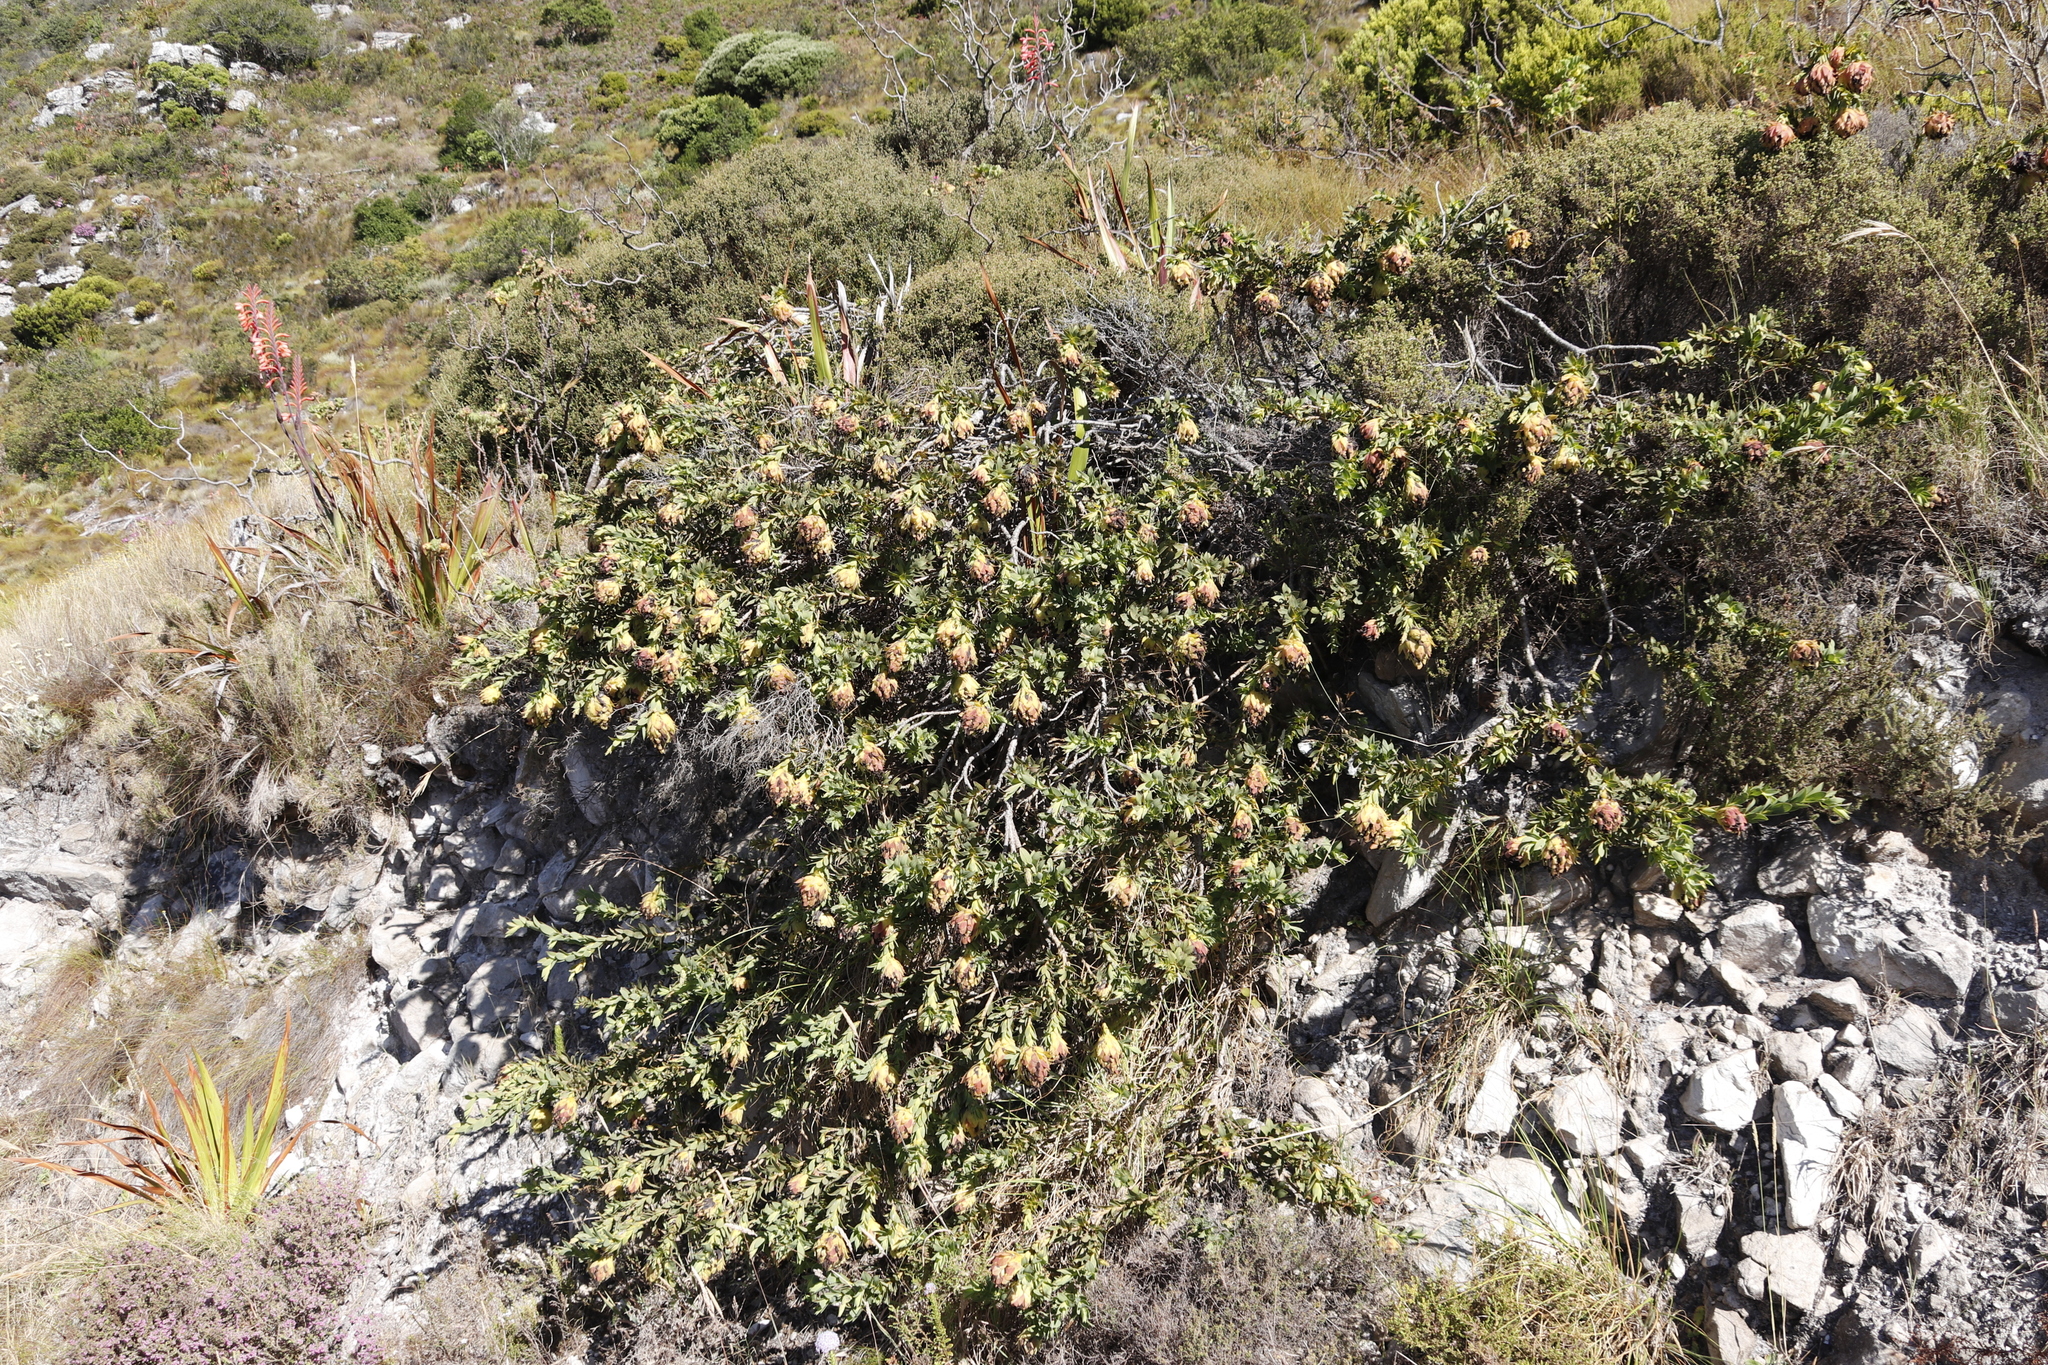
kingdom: Plantae
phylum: Tracheophyta
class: Magnoliopsida
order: Fabales
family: Fabaceae
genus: Liparia
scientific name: Liparia splendens
